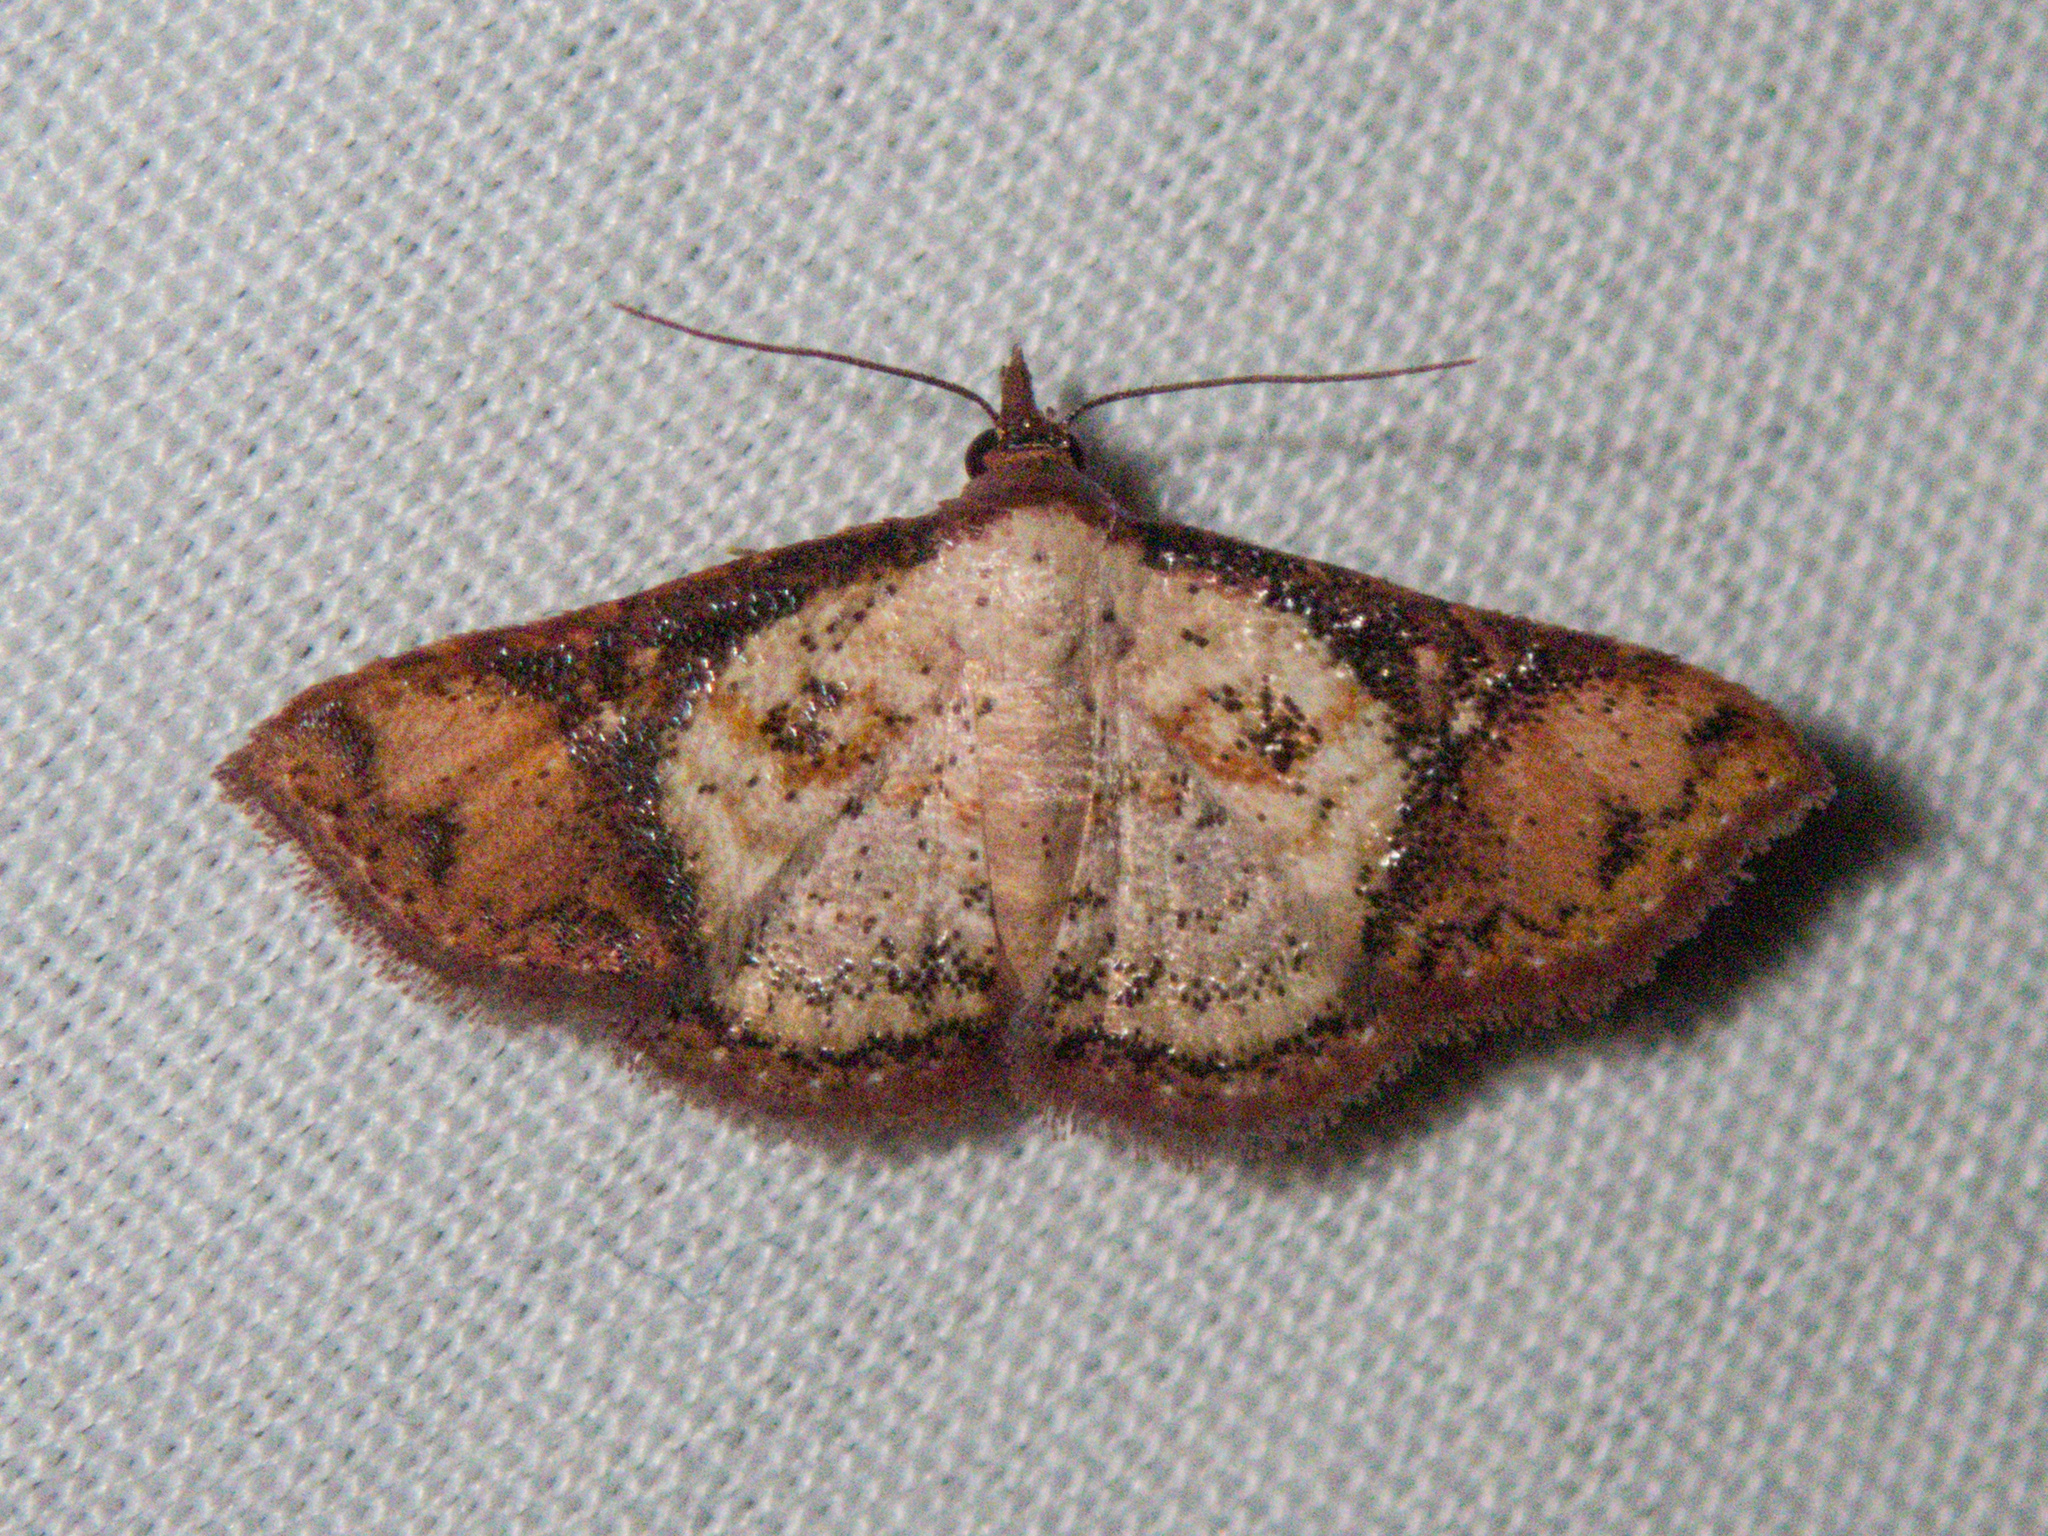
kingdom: Animalia
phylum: Arthropoda
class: Insecta
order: Lepidoptera
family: Erebidae
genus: Corgatha
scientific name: Corgatha atrimargo
